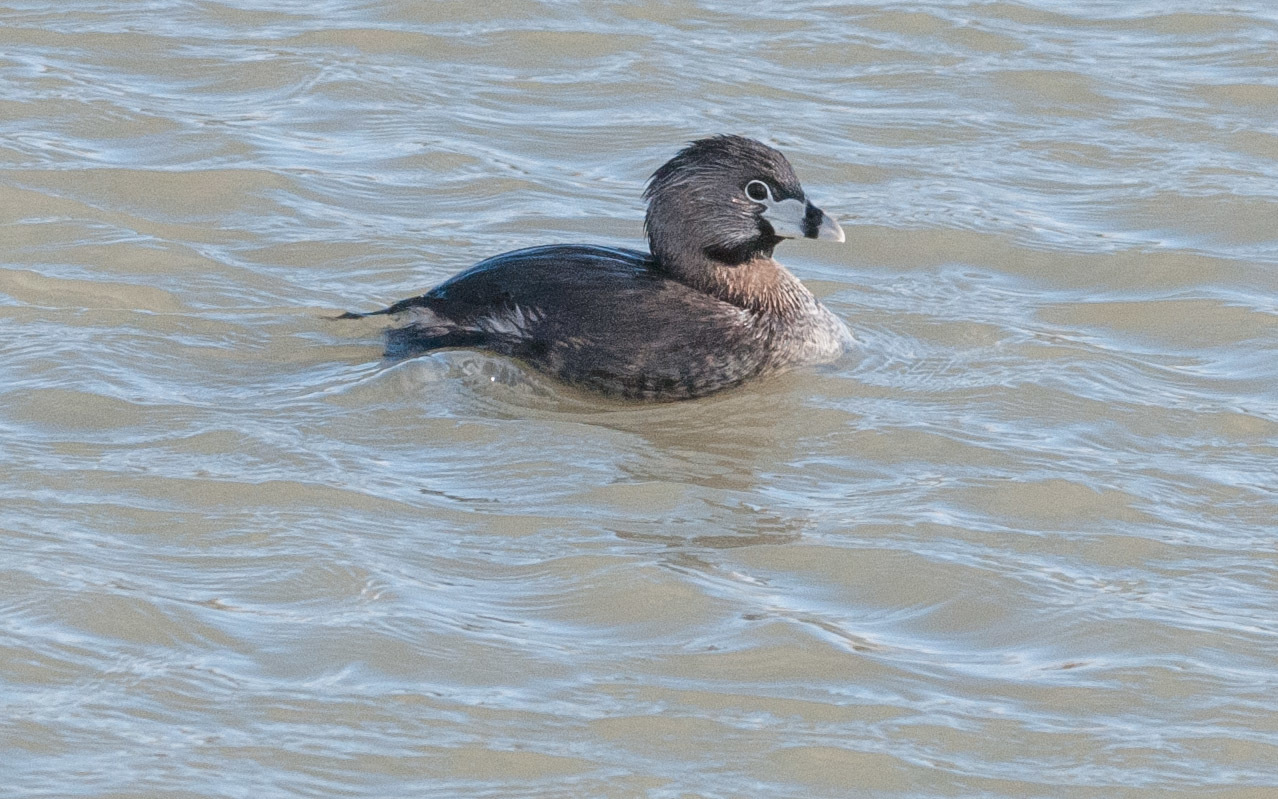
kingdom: Animalia
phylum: Chordata
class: Aves
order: Podicipediformes
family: Podicipedidae
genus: Podilymbus
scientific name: Podilymbus podiceps
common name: Pied-billed grebe
